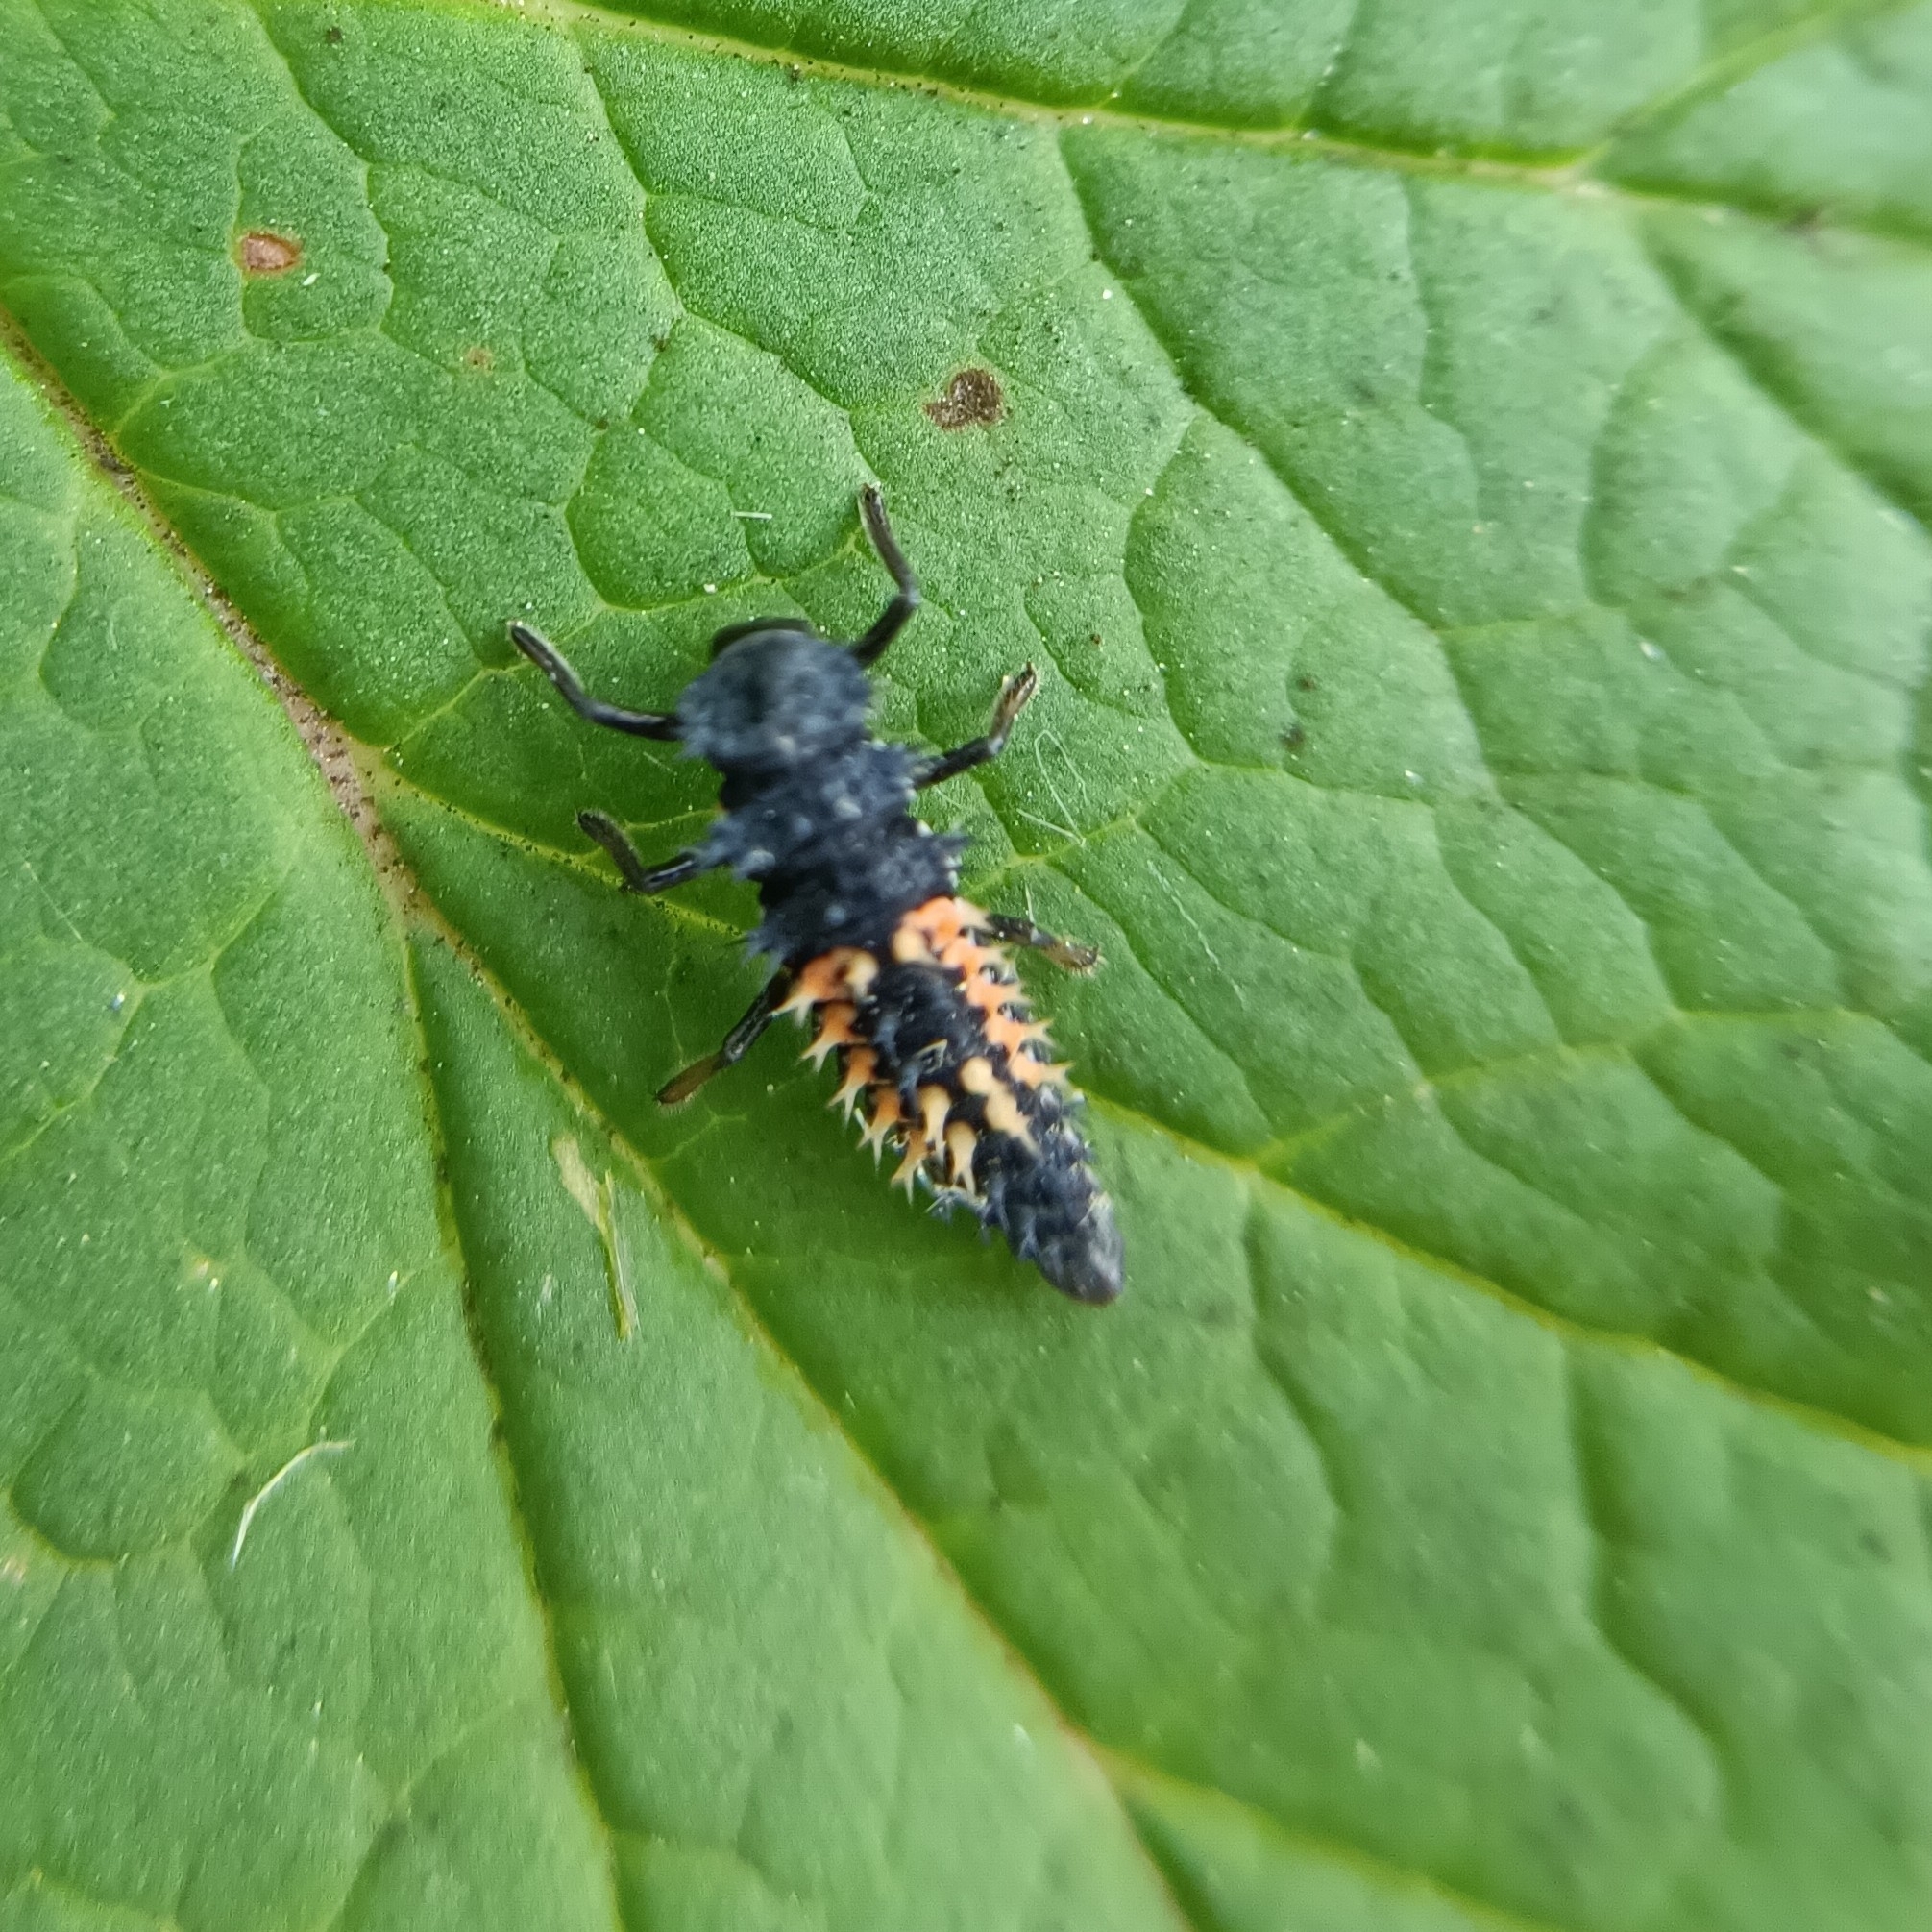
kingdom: Animalia
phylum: Arthropoda
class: Insecta
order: Coleoptera
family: Coccinellidae
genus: Harmonia
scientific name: Harmonia axyridis
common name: Harlequin ladybird
